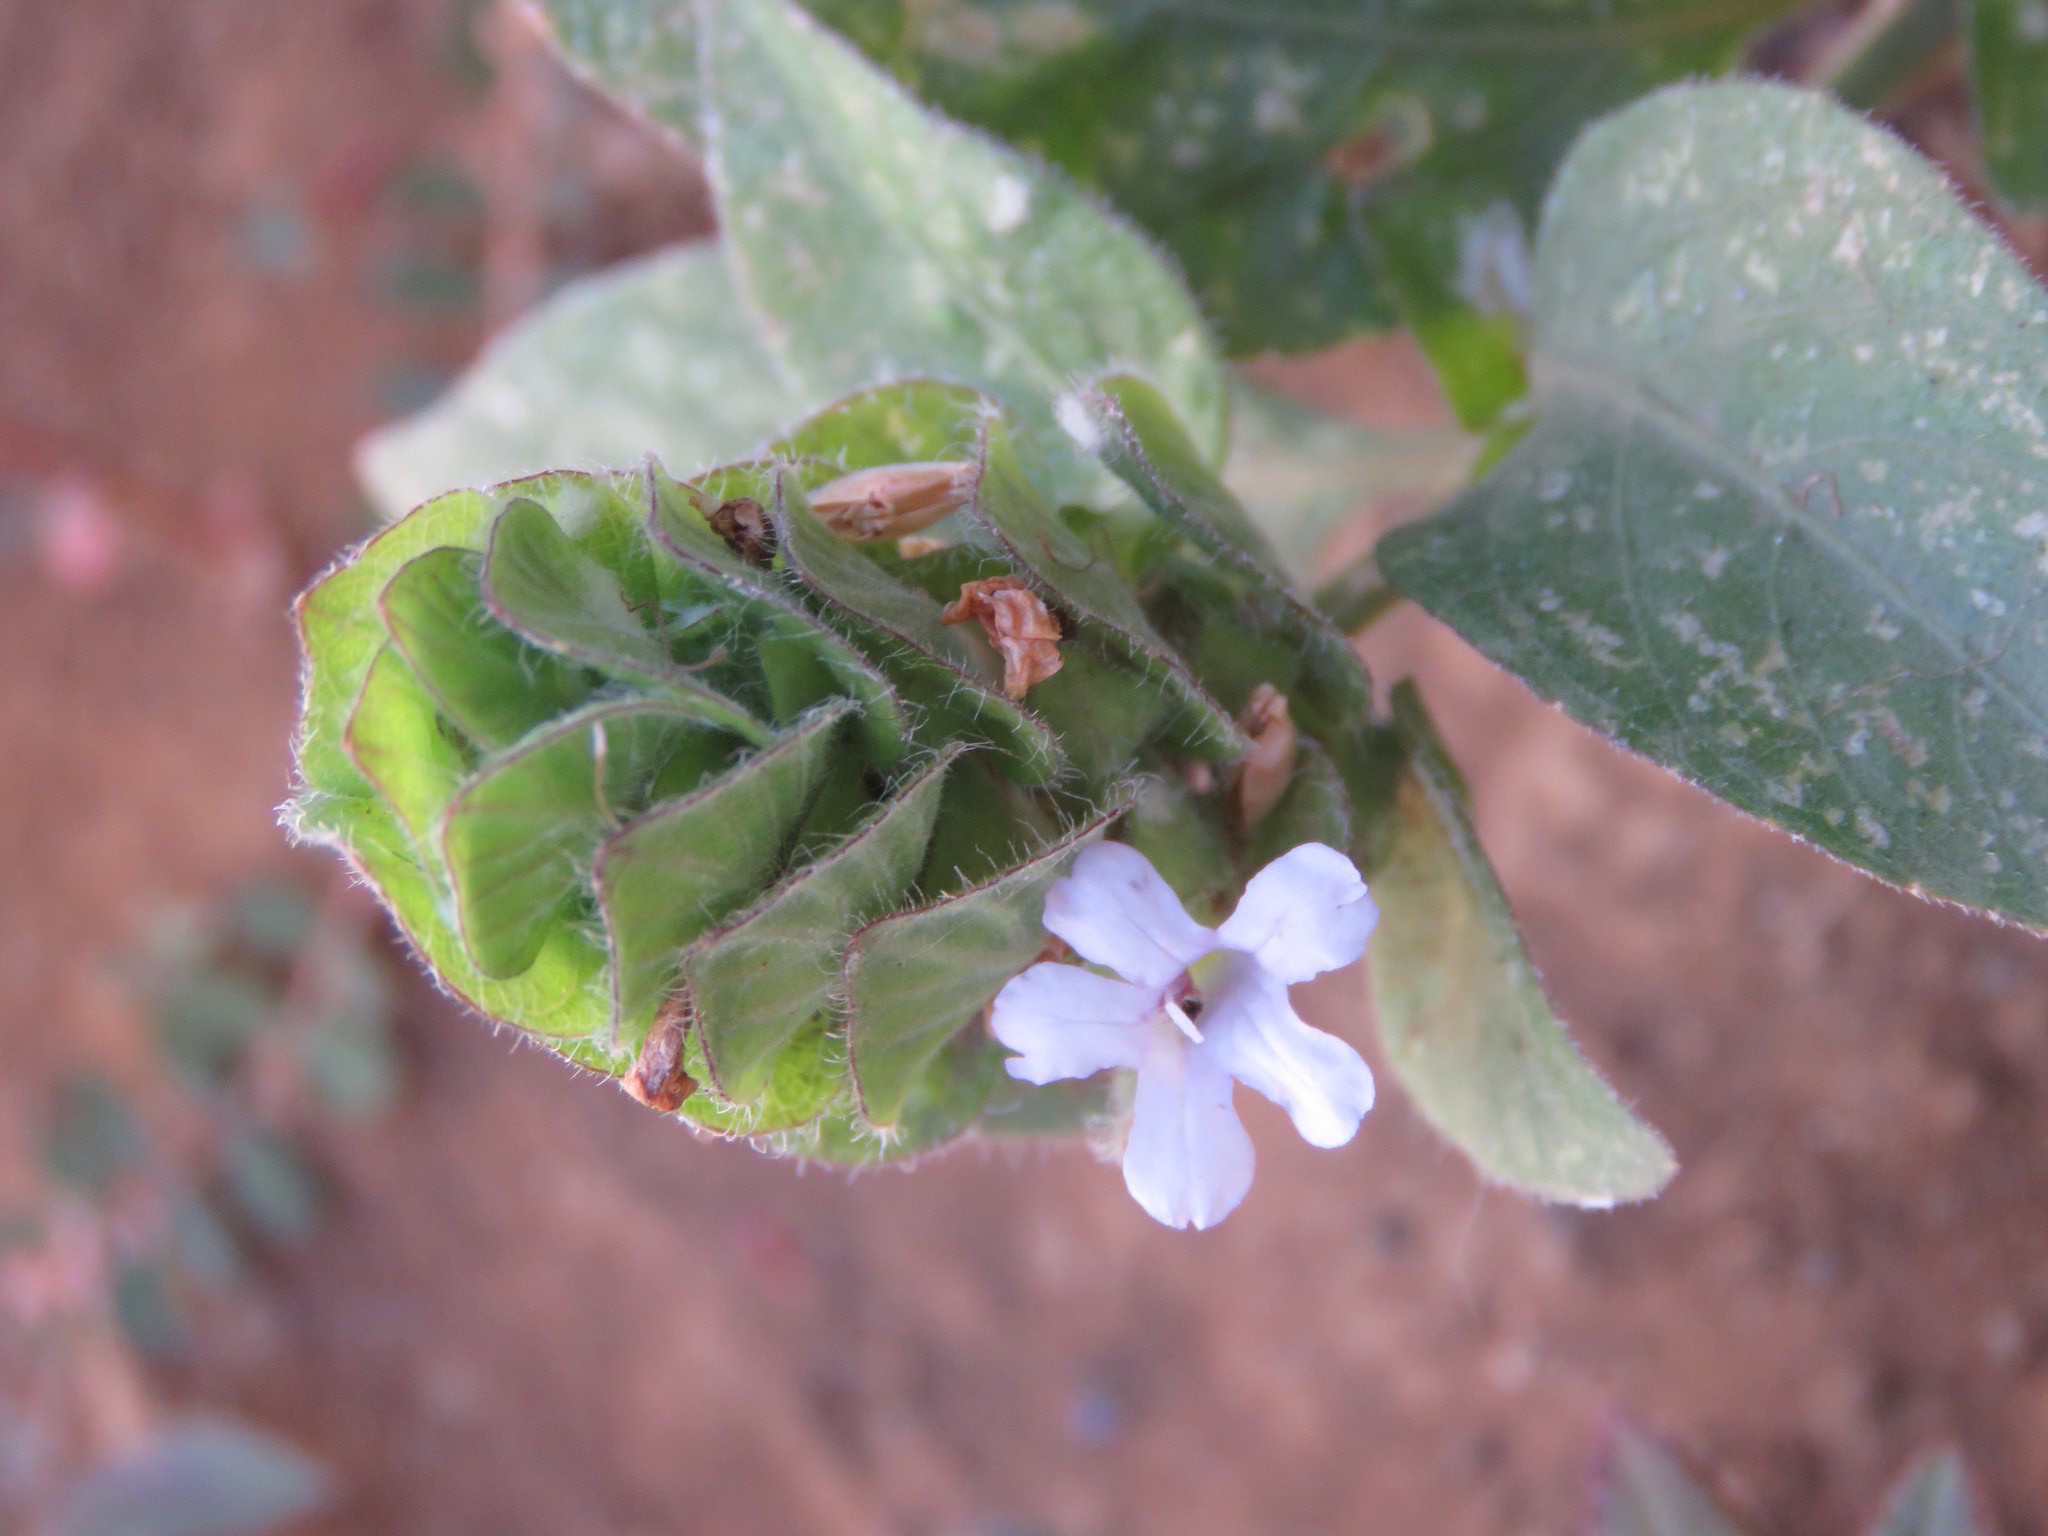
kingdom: Plantae
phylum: Tracheophyta
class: Magnoliopsida
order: Lamiales
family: Acanthaceae
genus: Ruellia
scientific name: Ruellia blechum
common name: Browne's blechum
